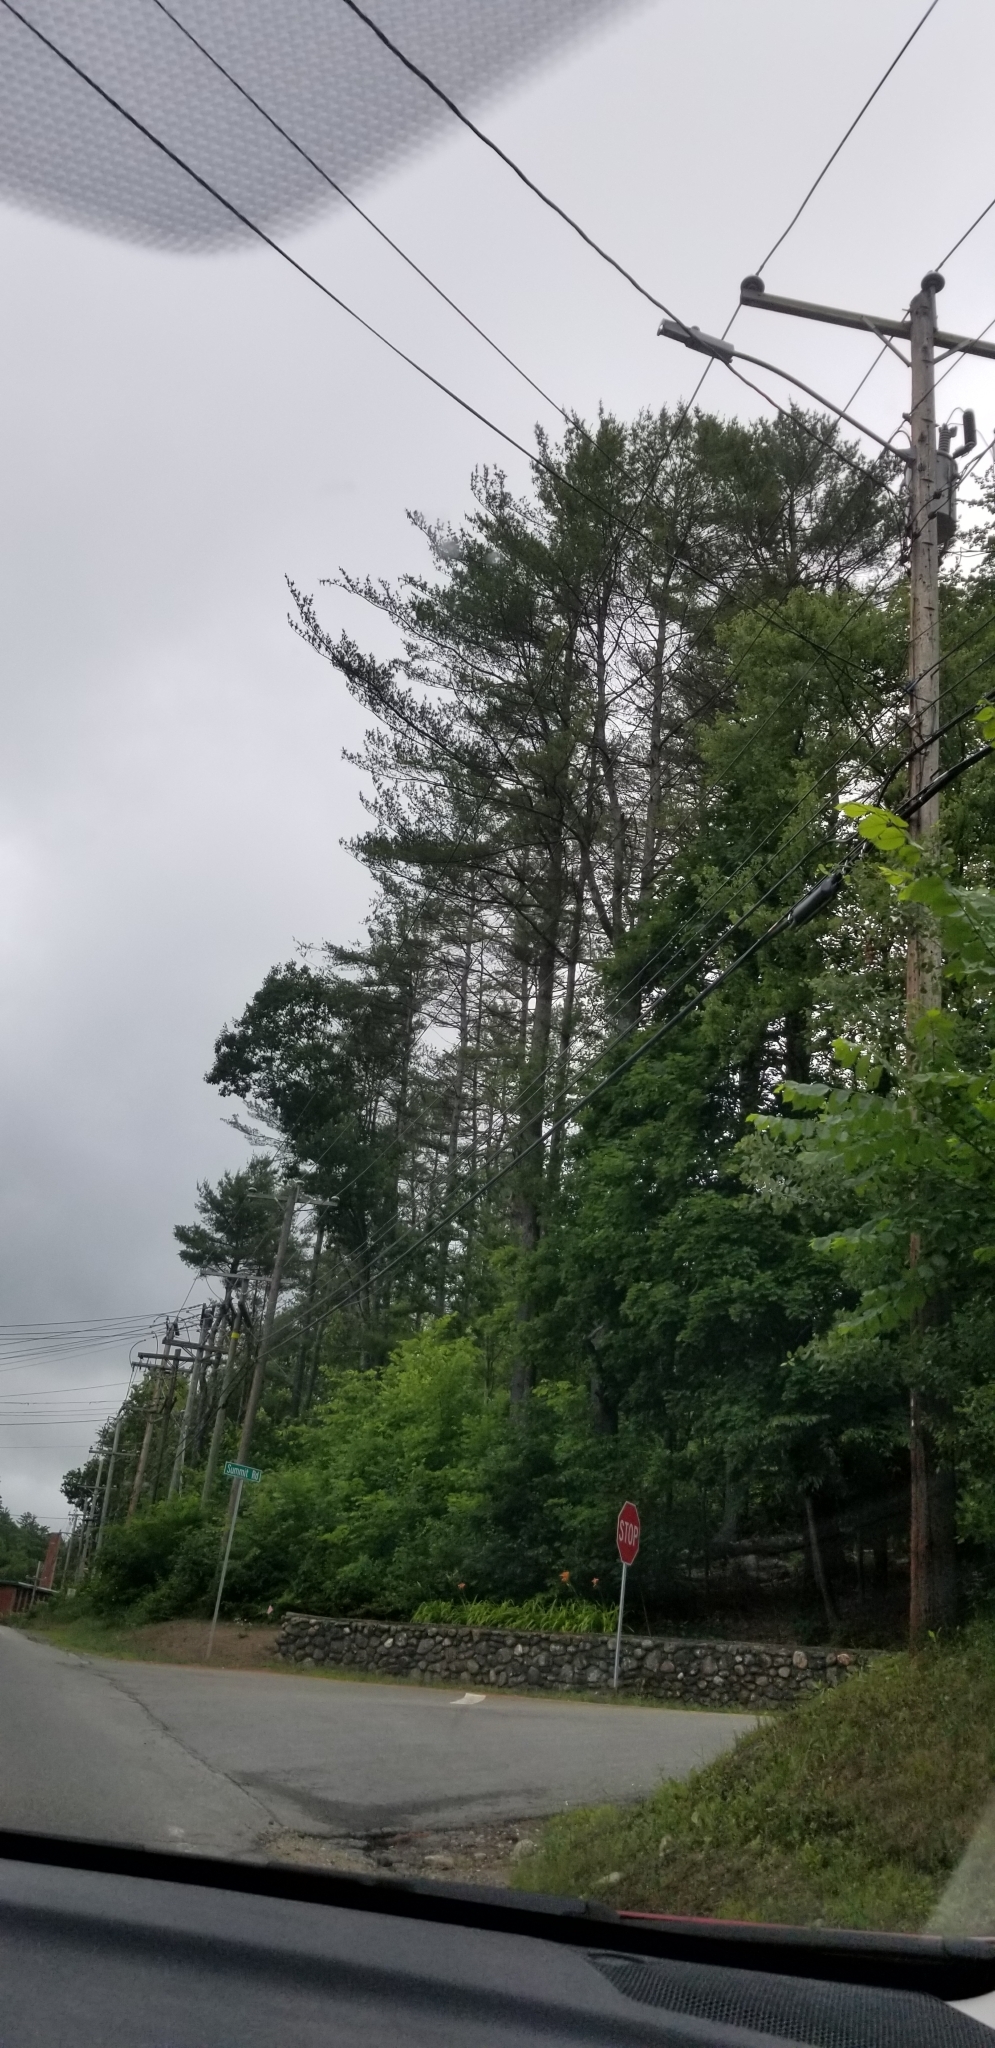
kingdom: Plantae
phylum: Tracheophyta
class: Pinopsida
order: Pinales
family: Pinaceae
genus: Pinus
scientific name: Pinus strobus
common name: Weymouth pine
